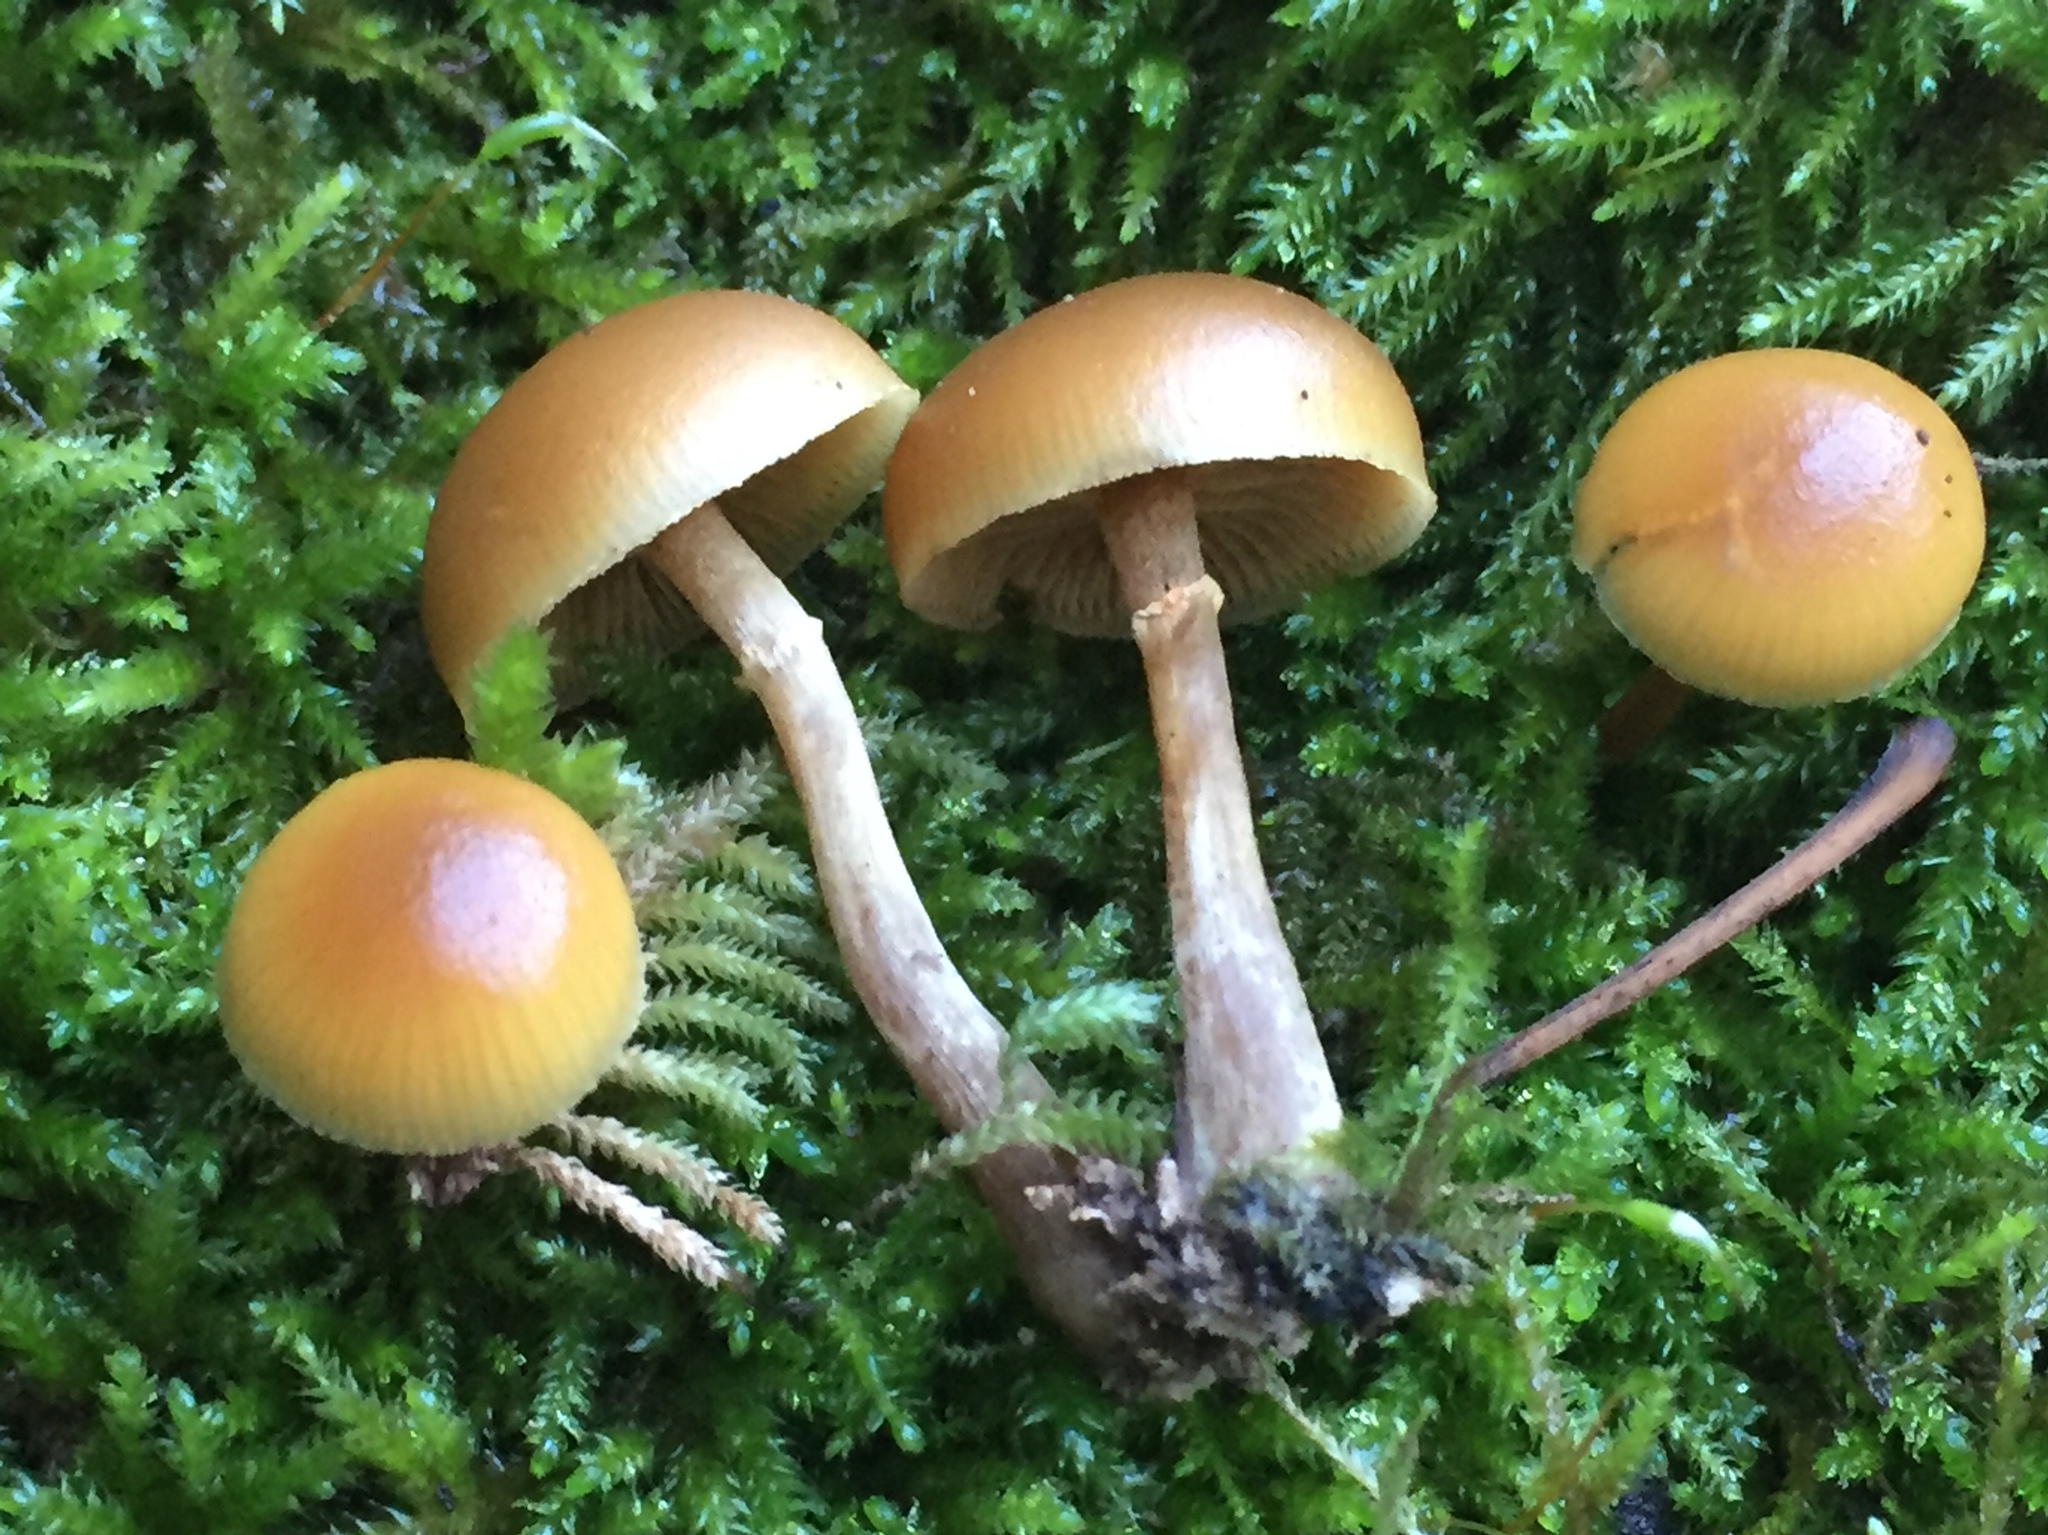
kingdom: Fungi
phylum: Basidiomycota
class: Agaricomycetes
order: Agaricales
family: Hymenogastraceae
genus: Galerina
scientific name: Galerina marginata
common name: Funeral bell
